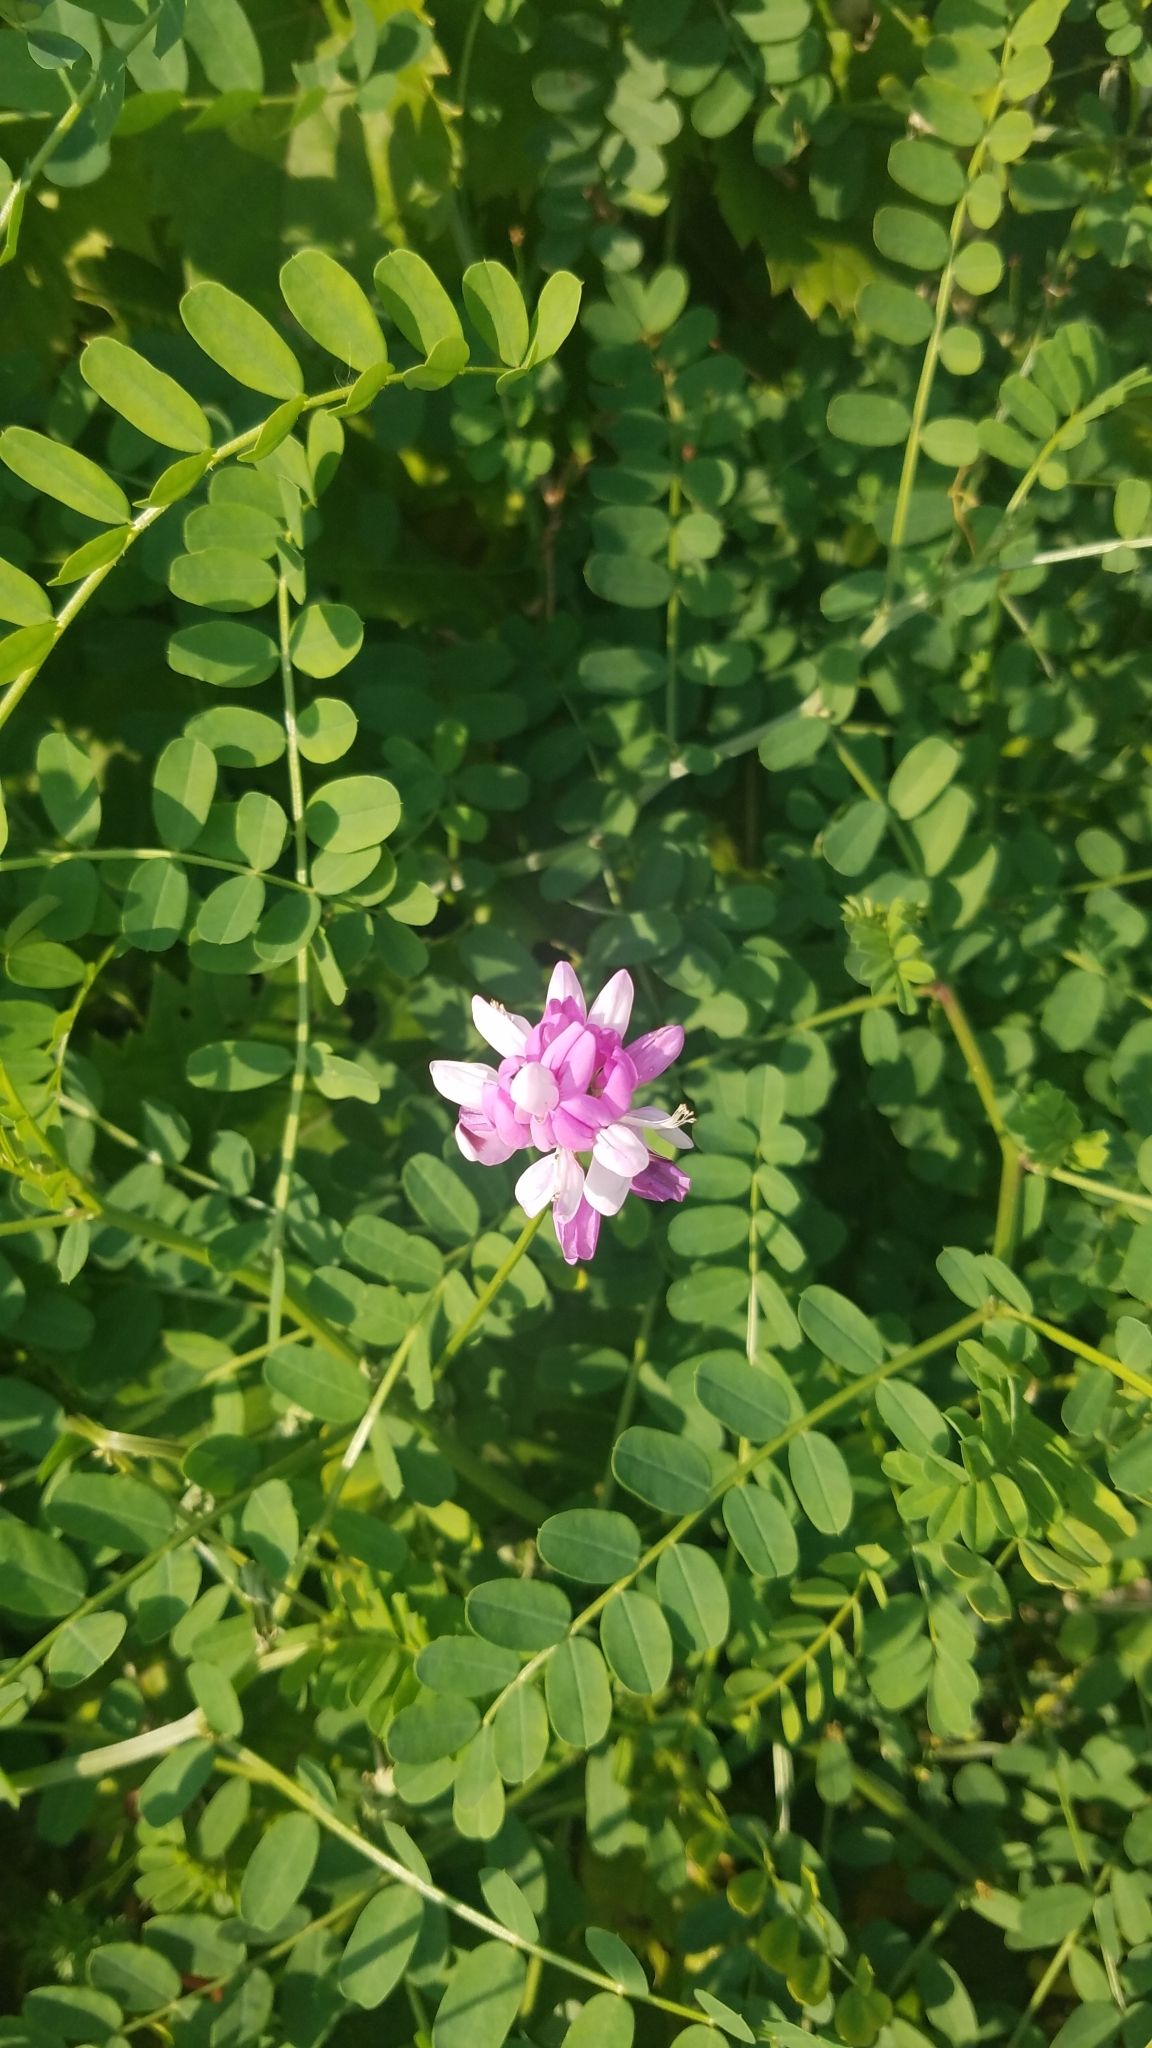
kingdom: Plantae
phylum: Tracheophyta
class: Magnoliopsida
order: Fabales
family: Fabaceae
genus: Coronilla
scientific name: Coronilla varia
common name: Crownvetch
